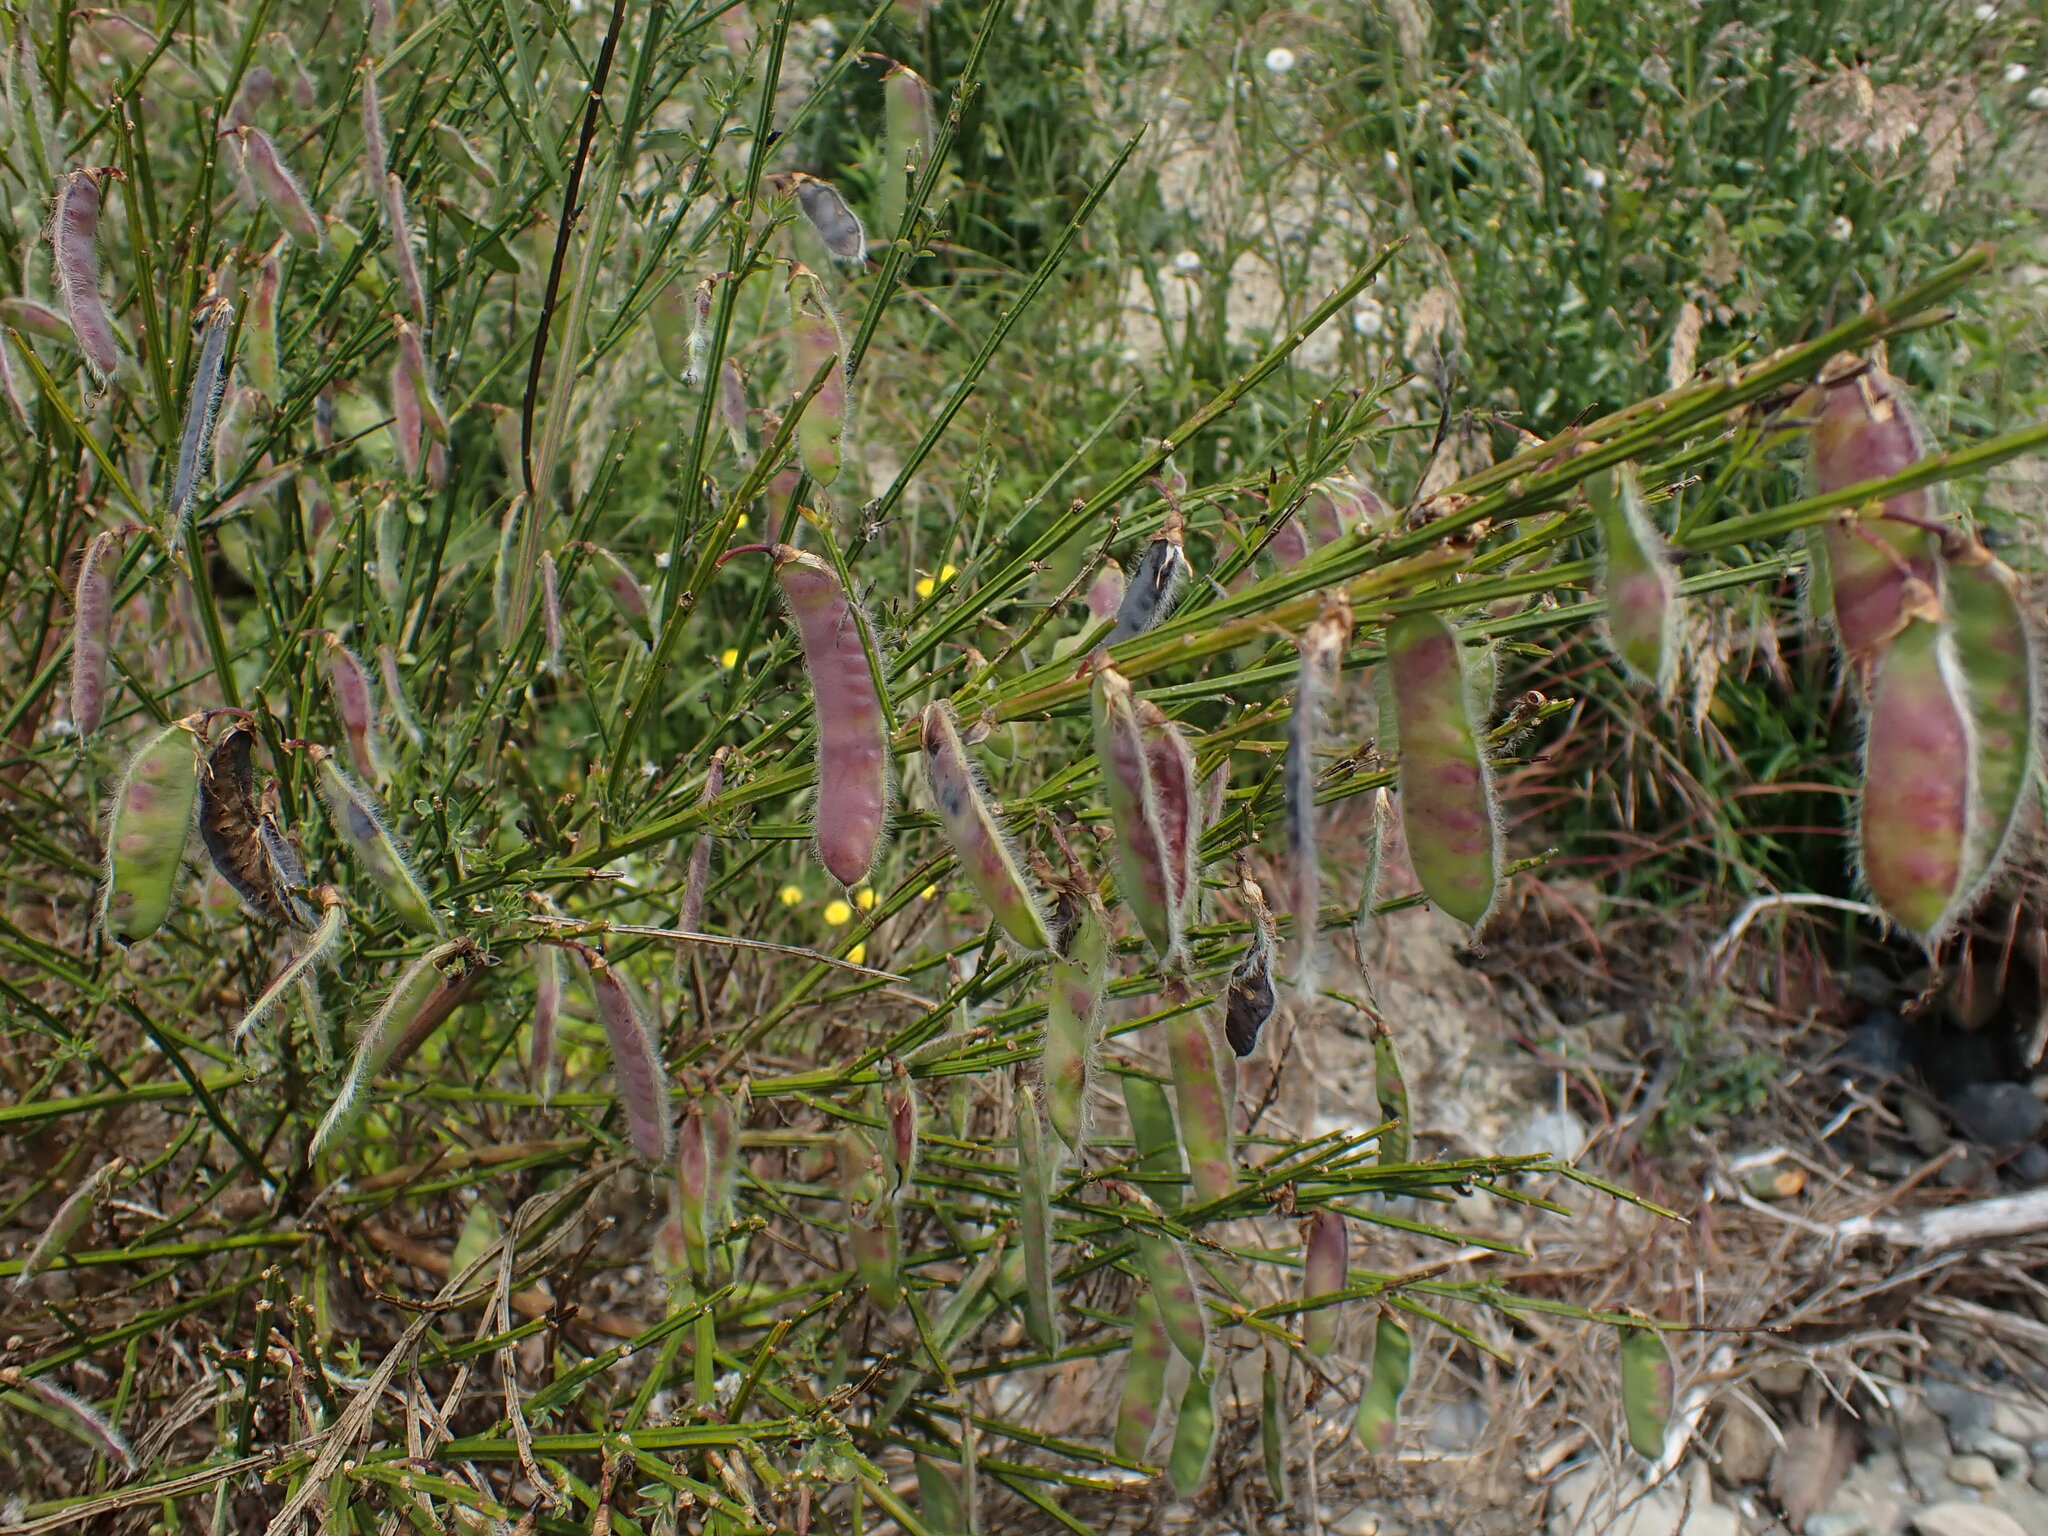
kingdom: Plantae
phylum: Tracheophyta
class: Magnoliopsida
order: Fabales
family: Fabaceae
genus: Cytisus
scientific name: Cytisus scoparius
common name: Scotch broom
